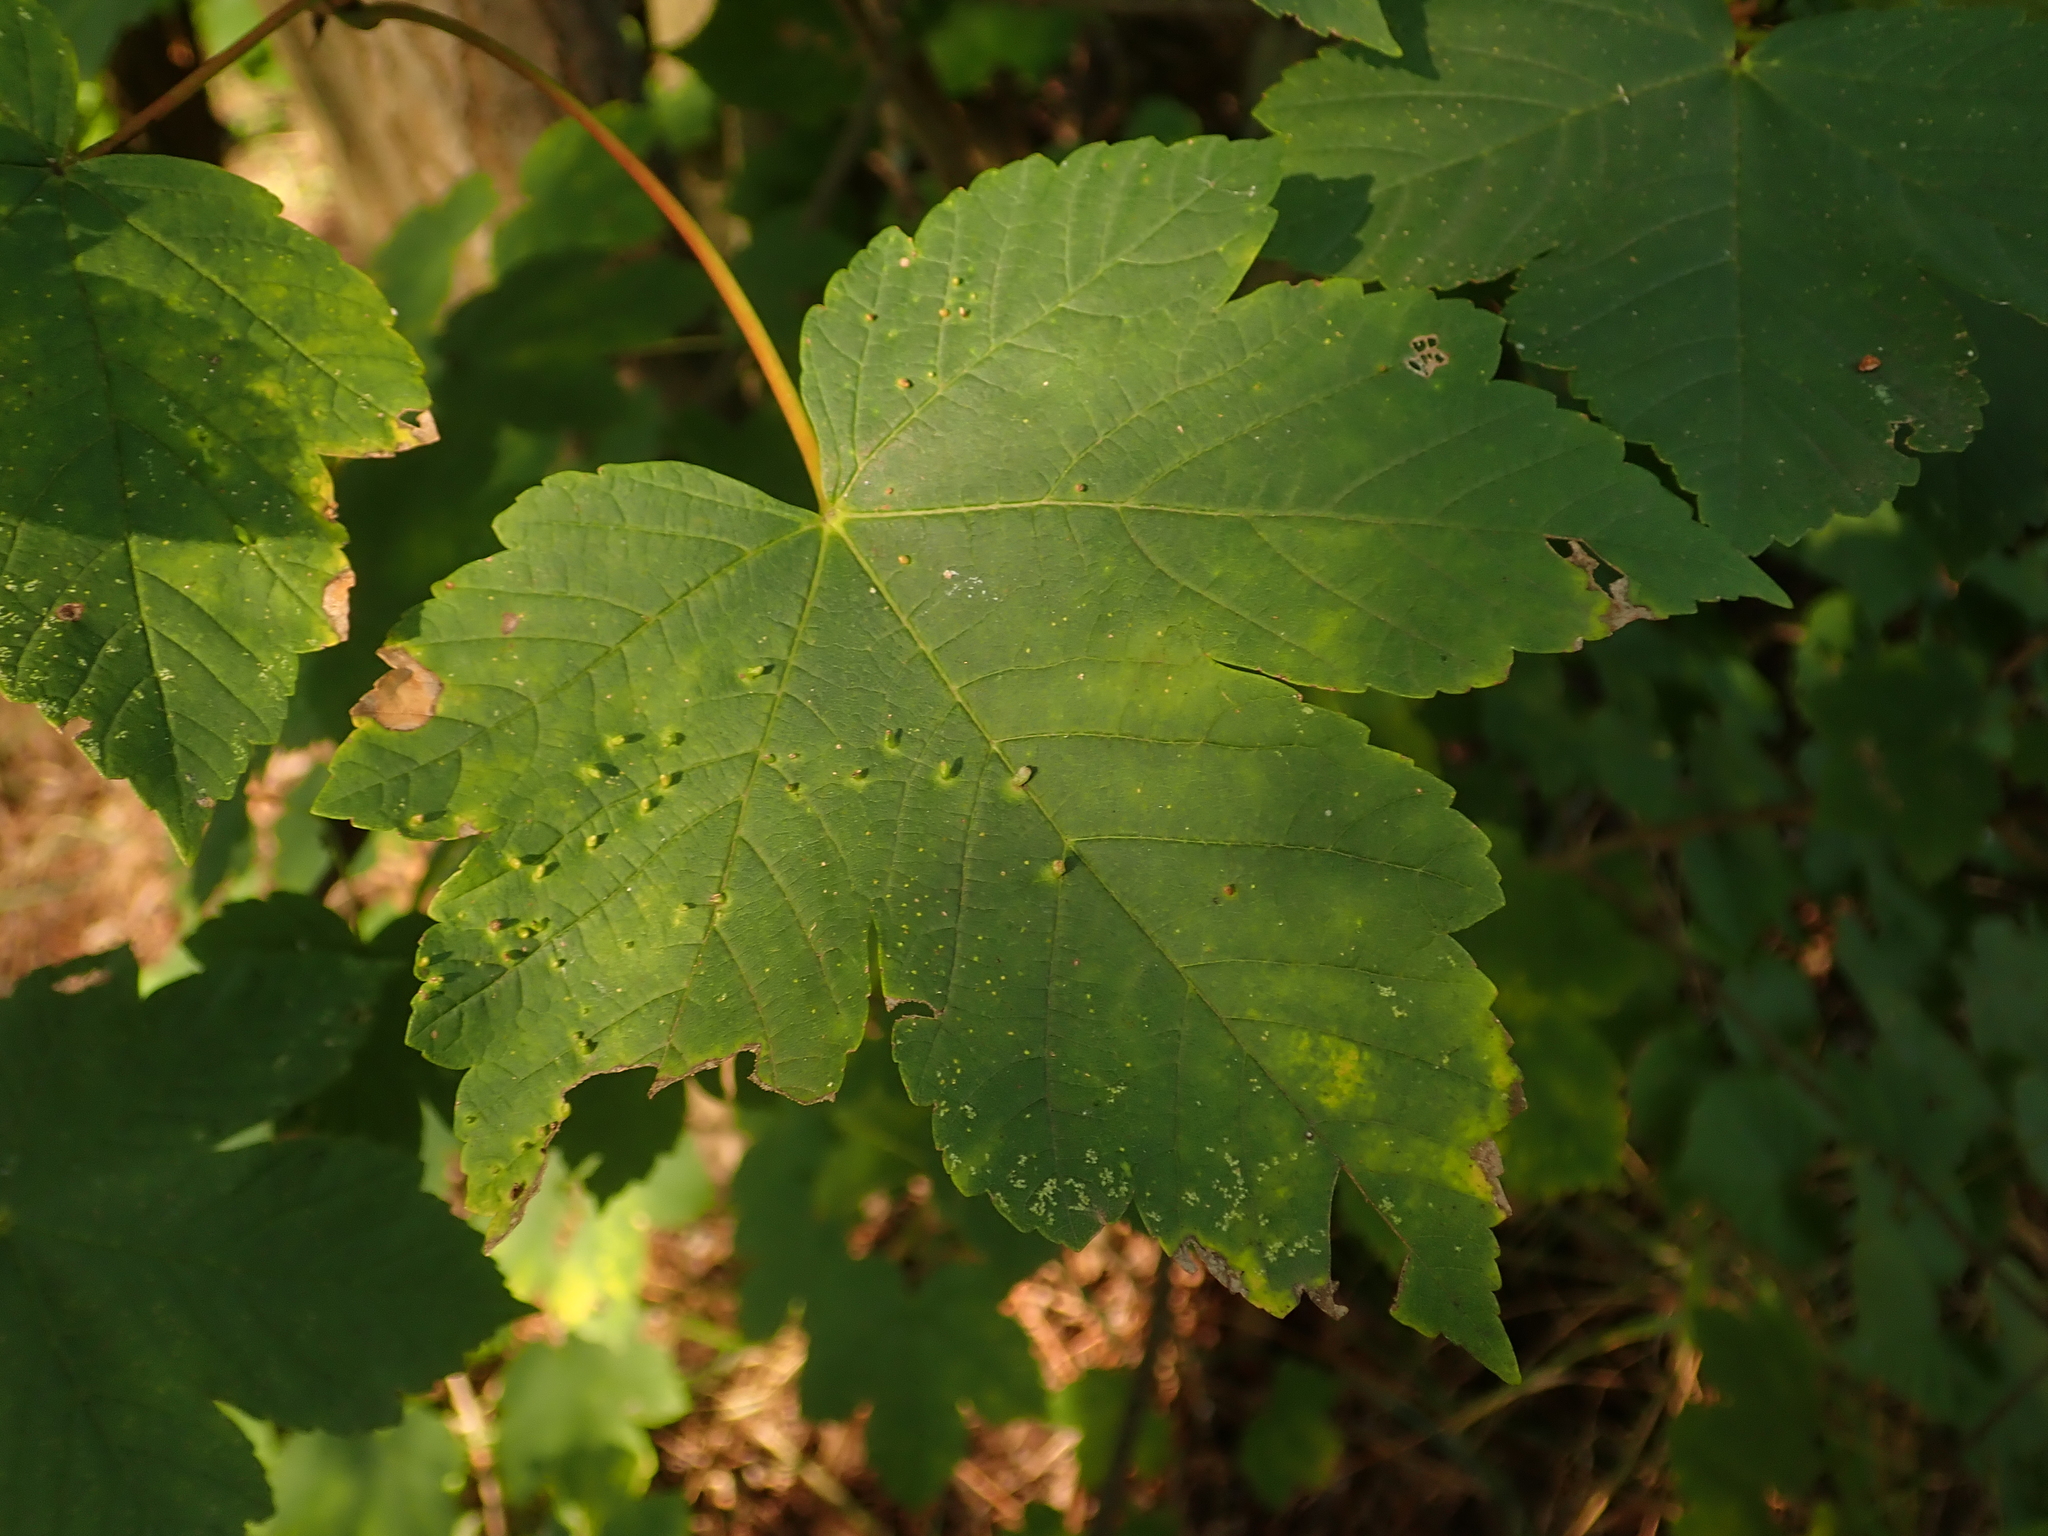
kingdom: Plantae
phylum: Tracheophyta
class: Magnoliopsida
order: Sapindales
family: Sapindaceae
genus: Acer
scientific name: Acer pseudoplatanus
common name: Sycamore
